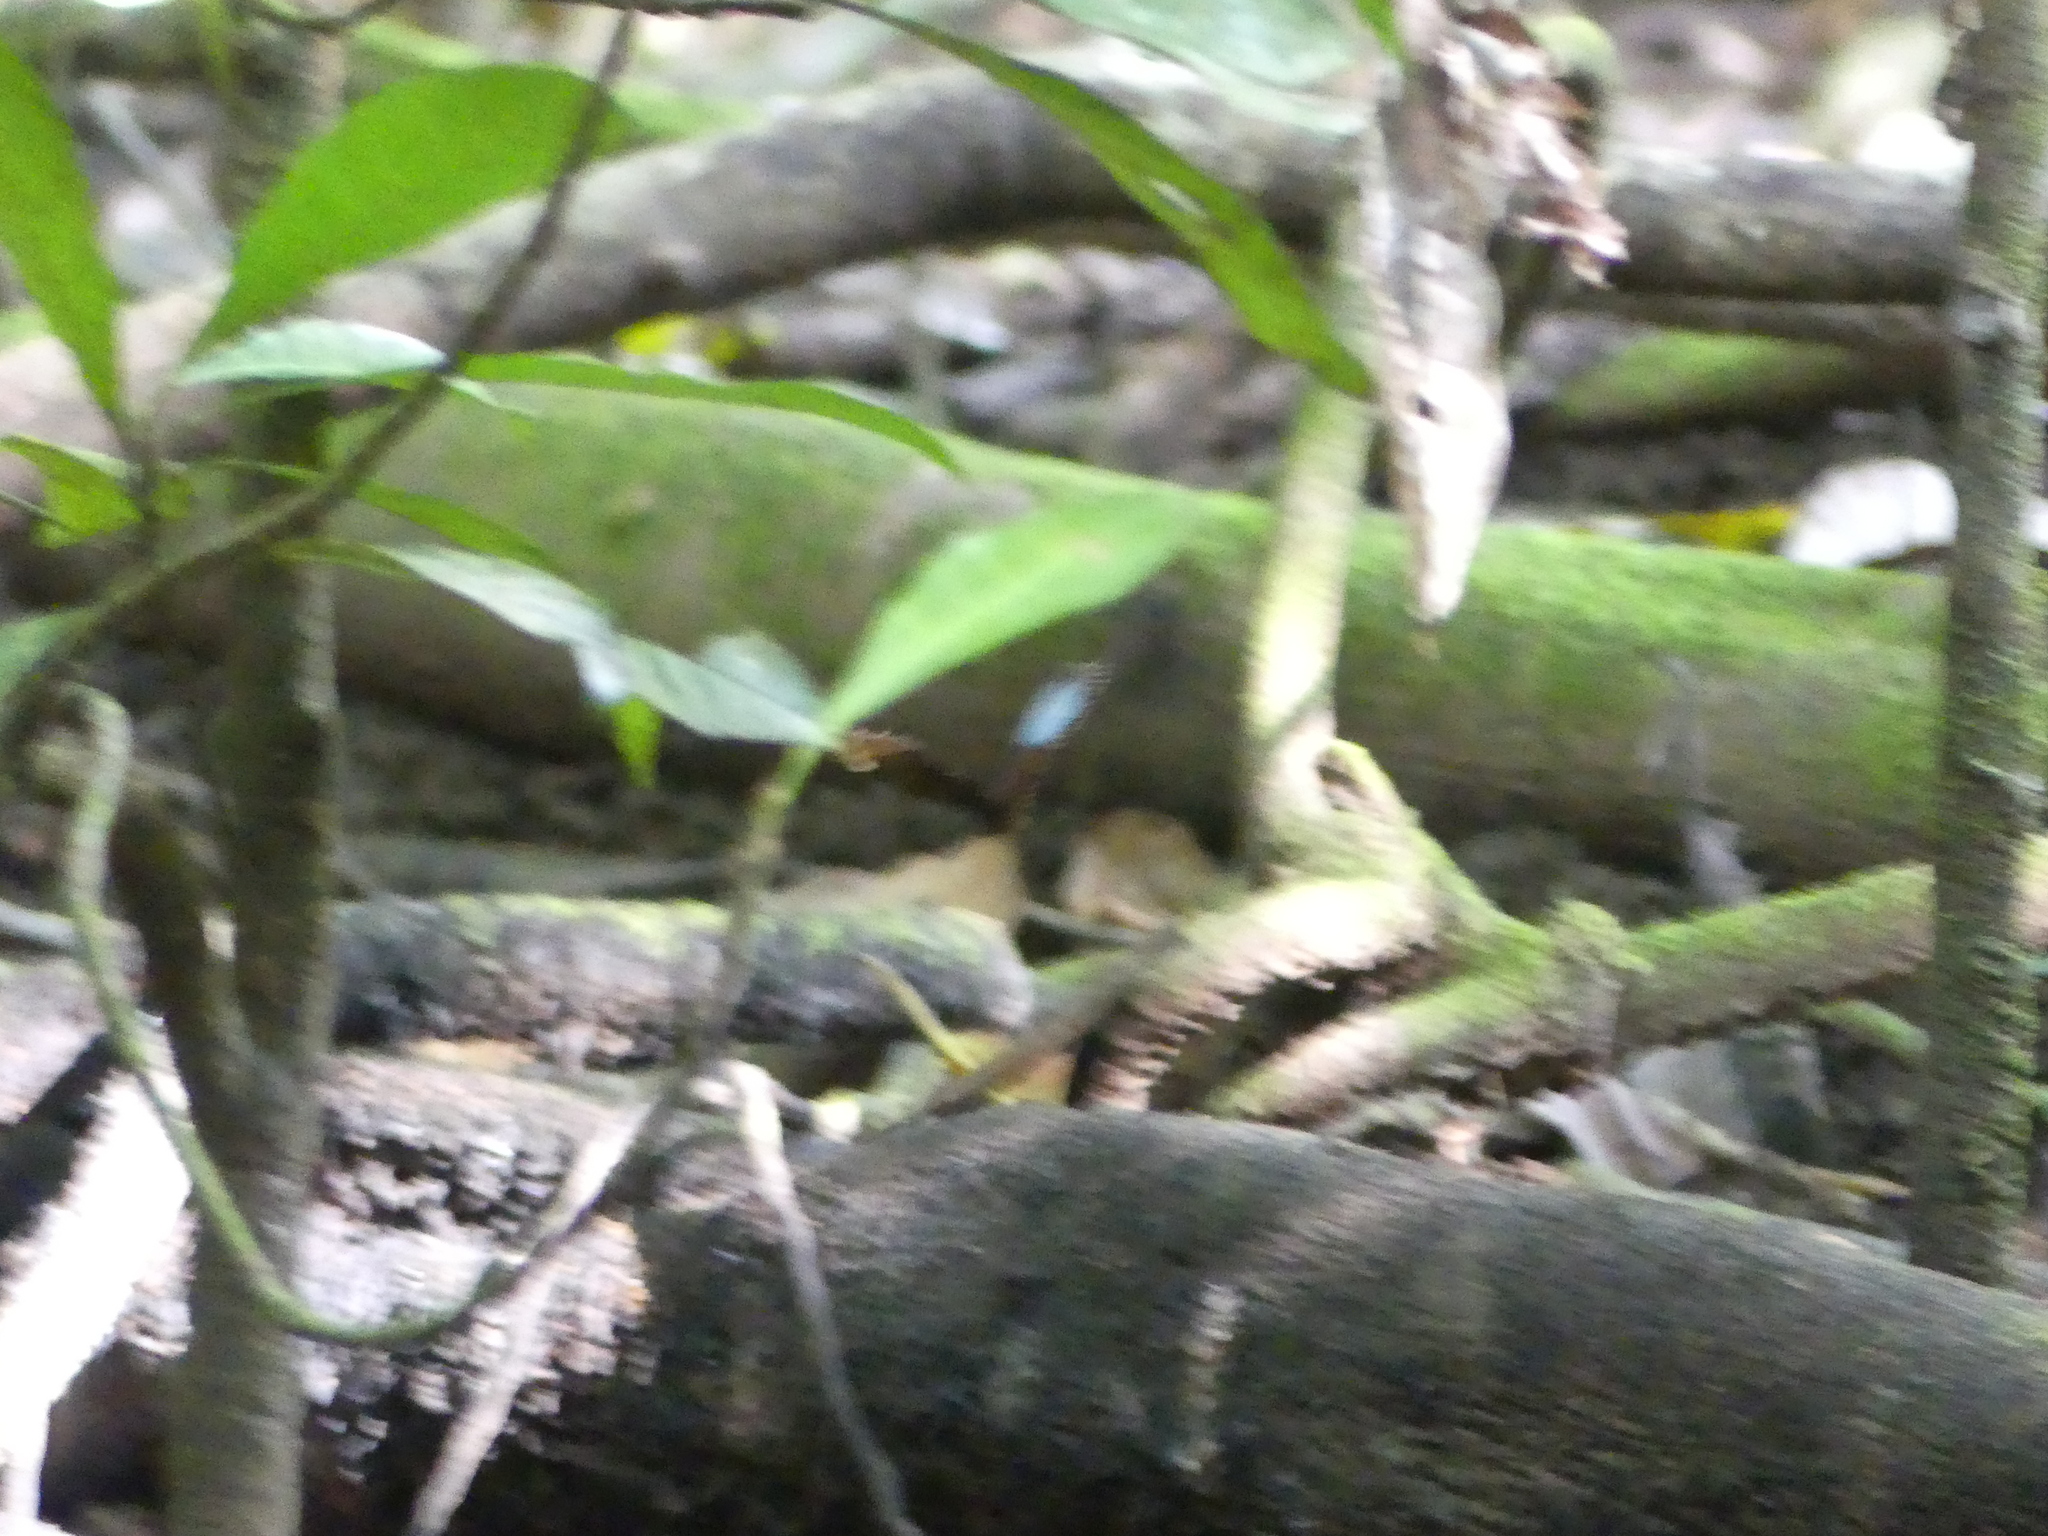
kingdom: Animalia
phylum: Arthropoda
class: Insecta
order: Lepidoptera
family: Nymphalidae
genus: Morpho
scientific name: Morpho helenor
